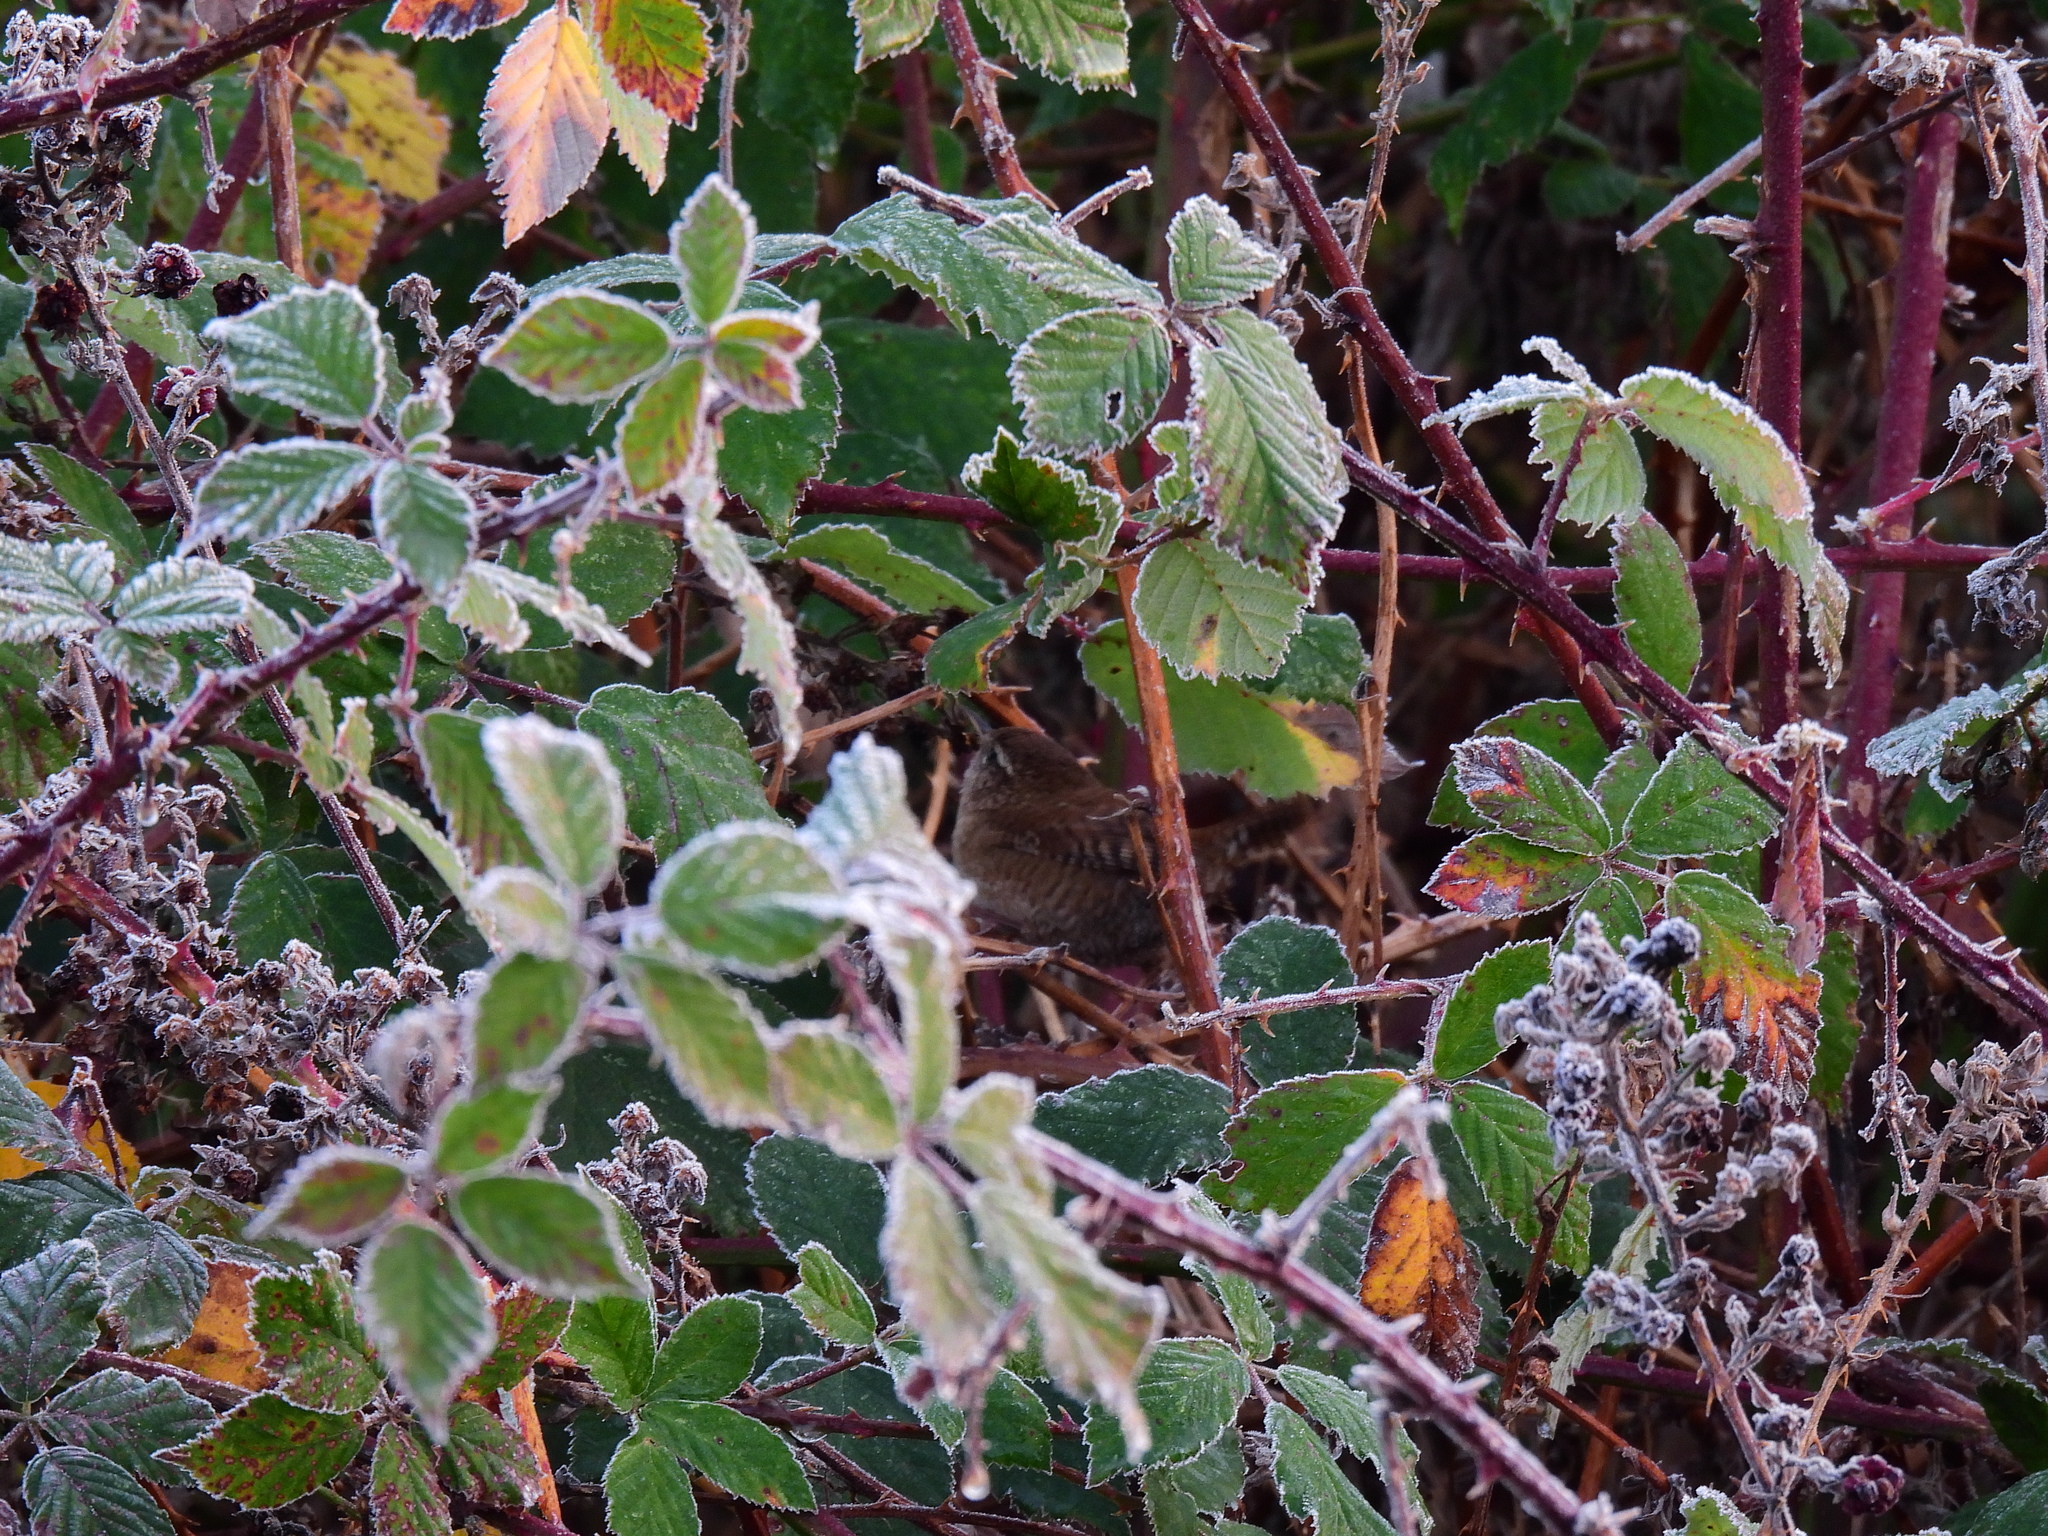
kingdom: Animalia
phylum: Chordata
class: Aves
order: Passeriformes
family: Troglodytidae
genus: Troglodytes
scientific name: Troglodytes troglodytes
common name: Eurasian wren
